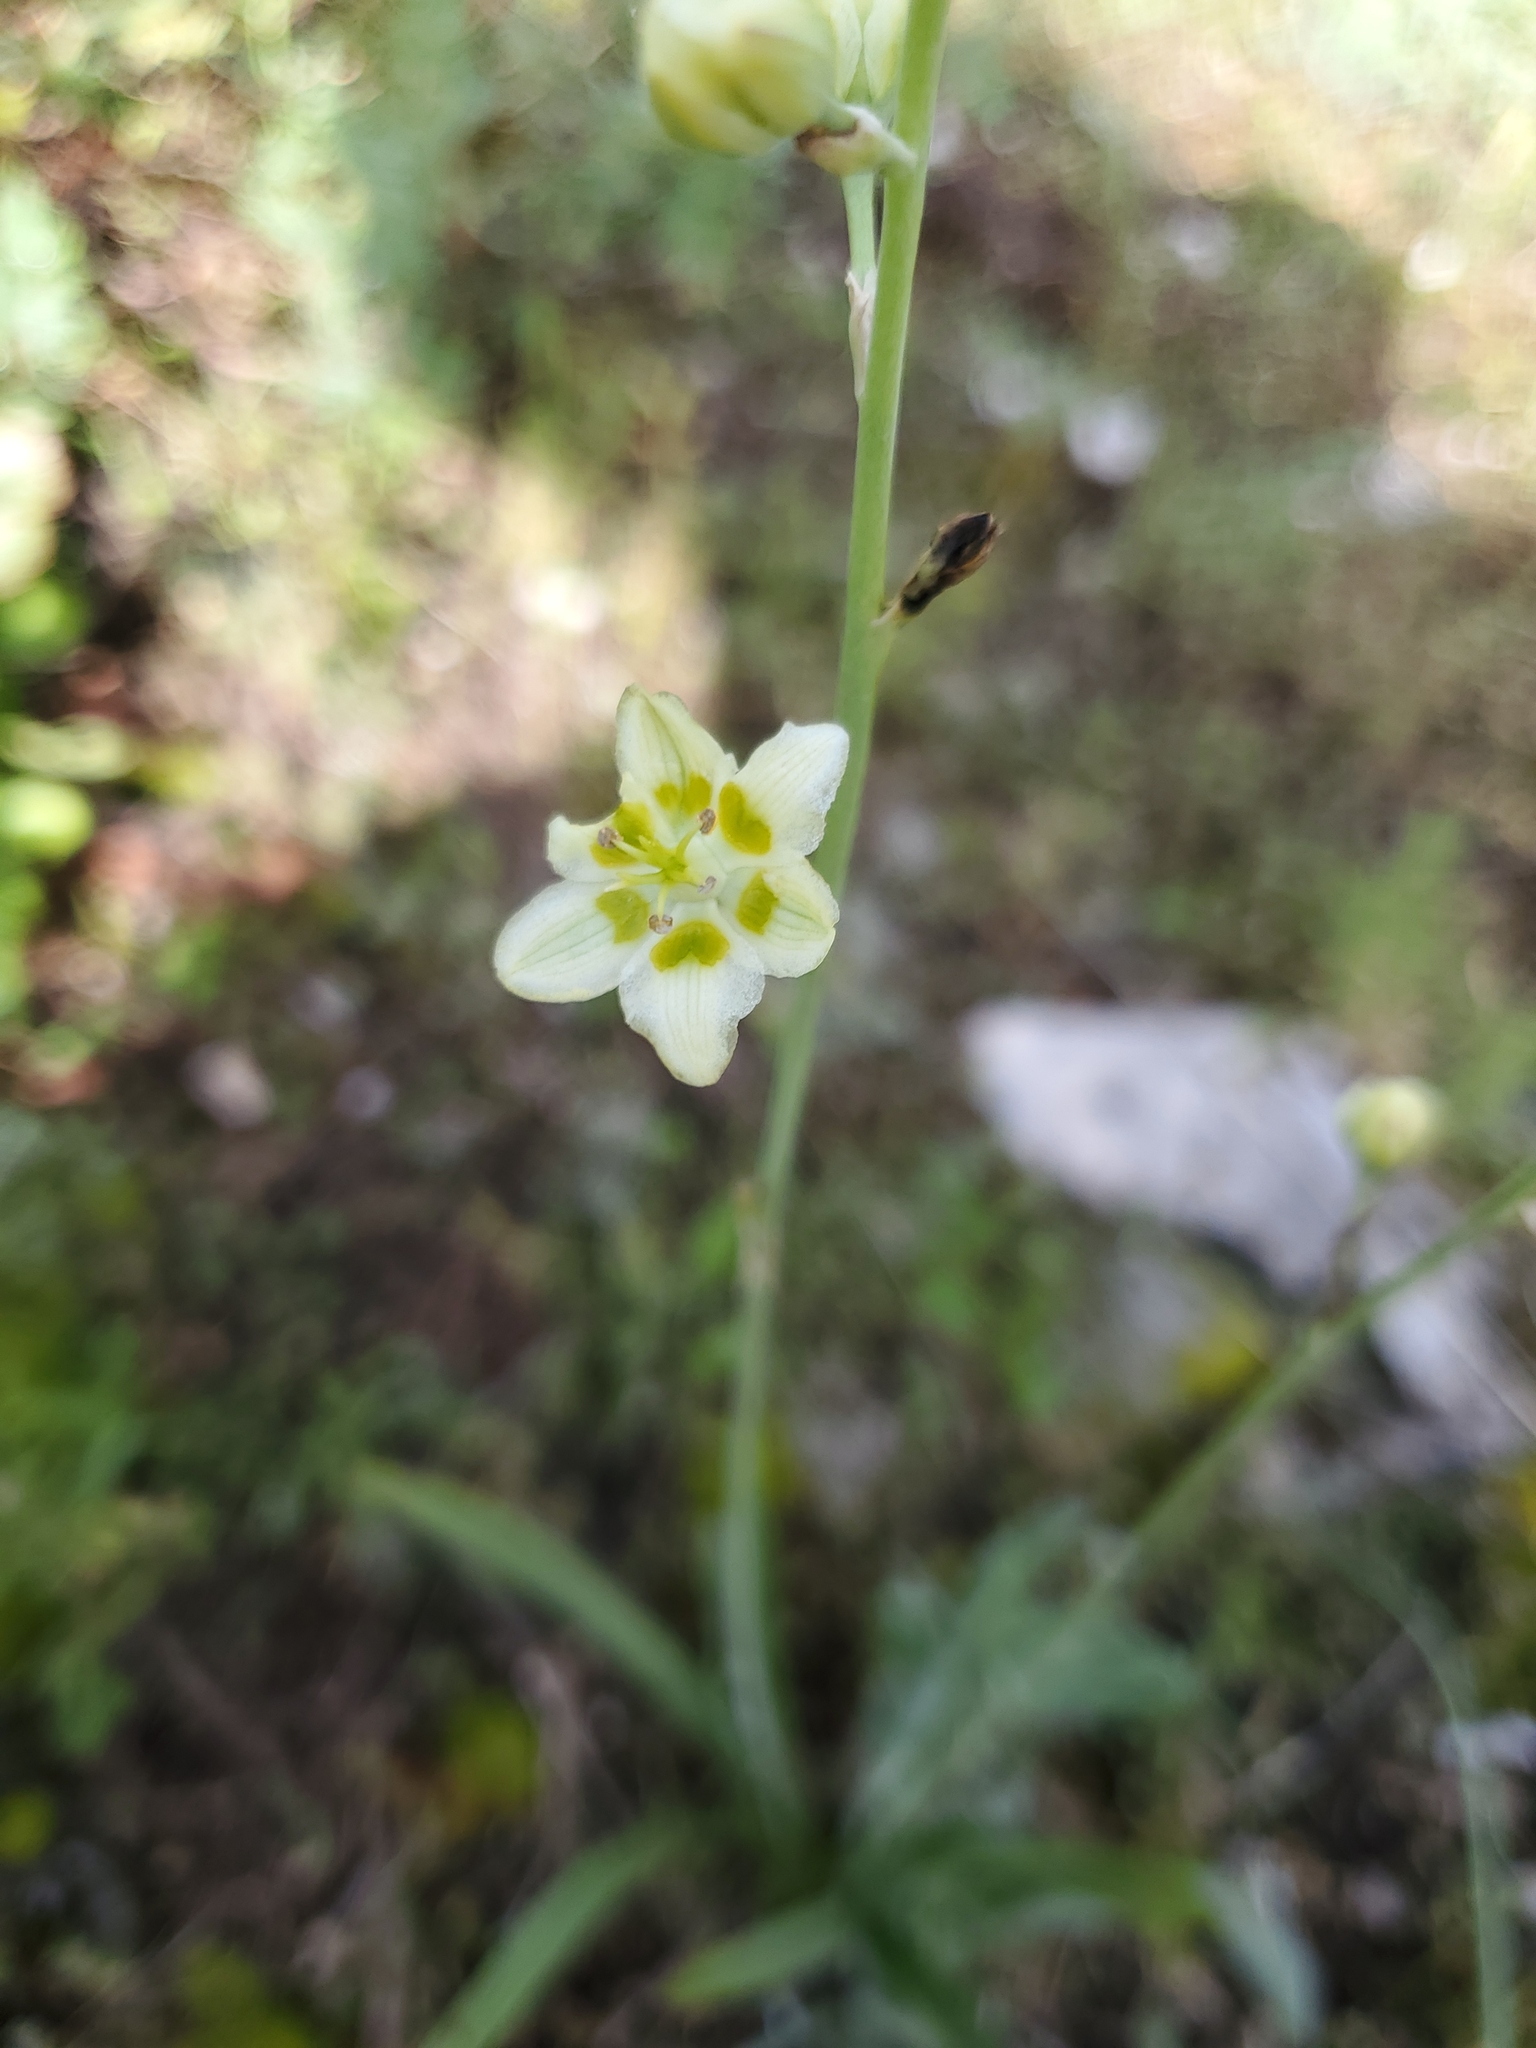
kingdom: Plantae
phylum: Tracheophyta
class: Liliopsida
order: Liliales
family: Melanthiaceae
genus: Anticlea
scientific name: Anticlea elegans
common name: Mountain death camas
